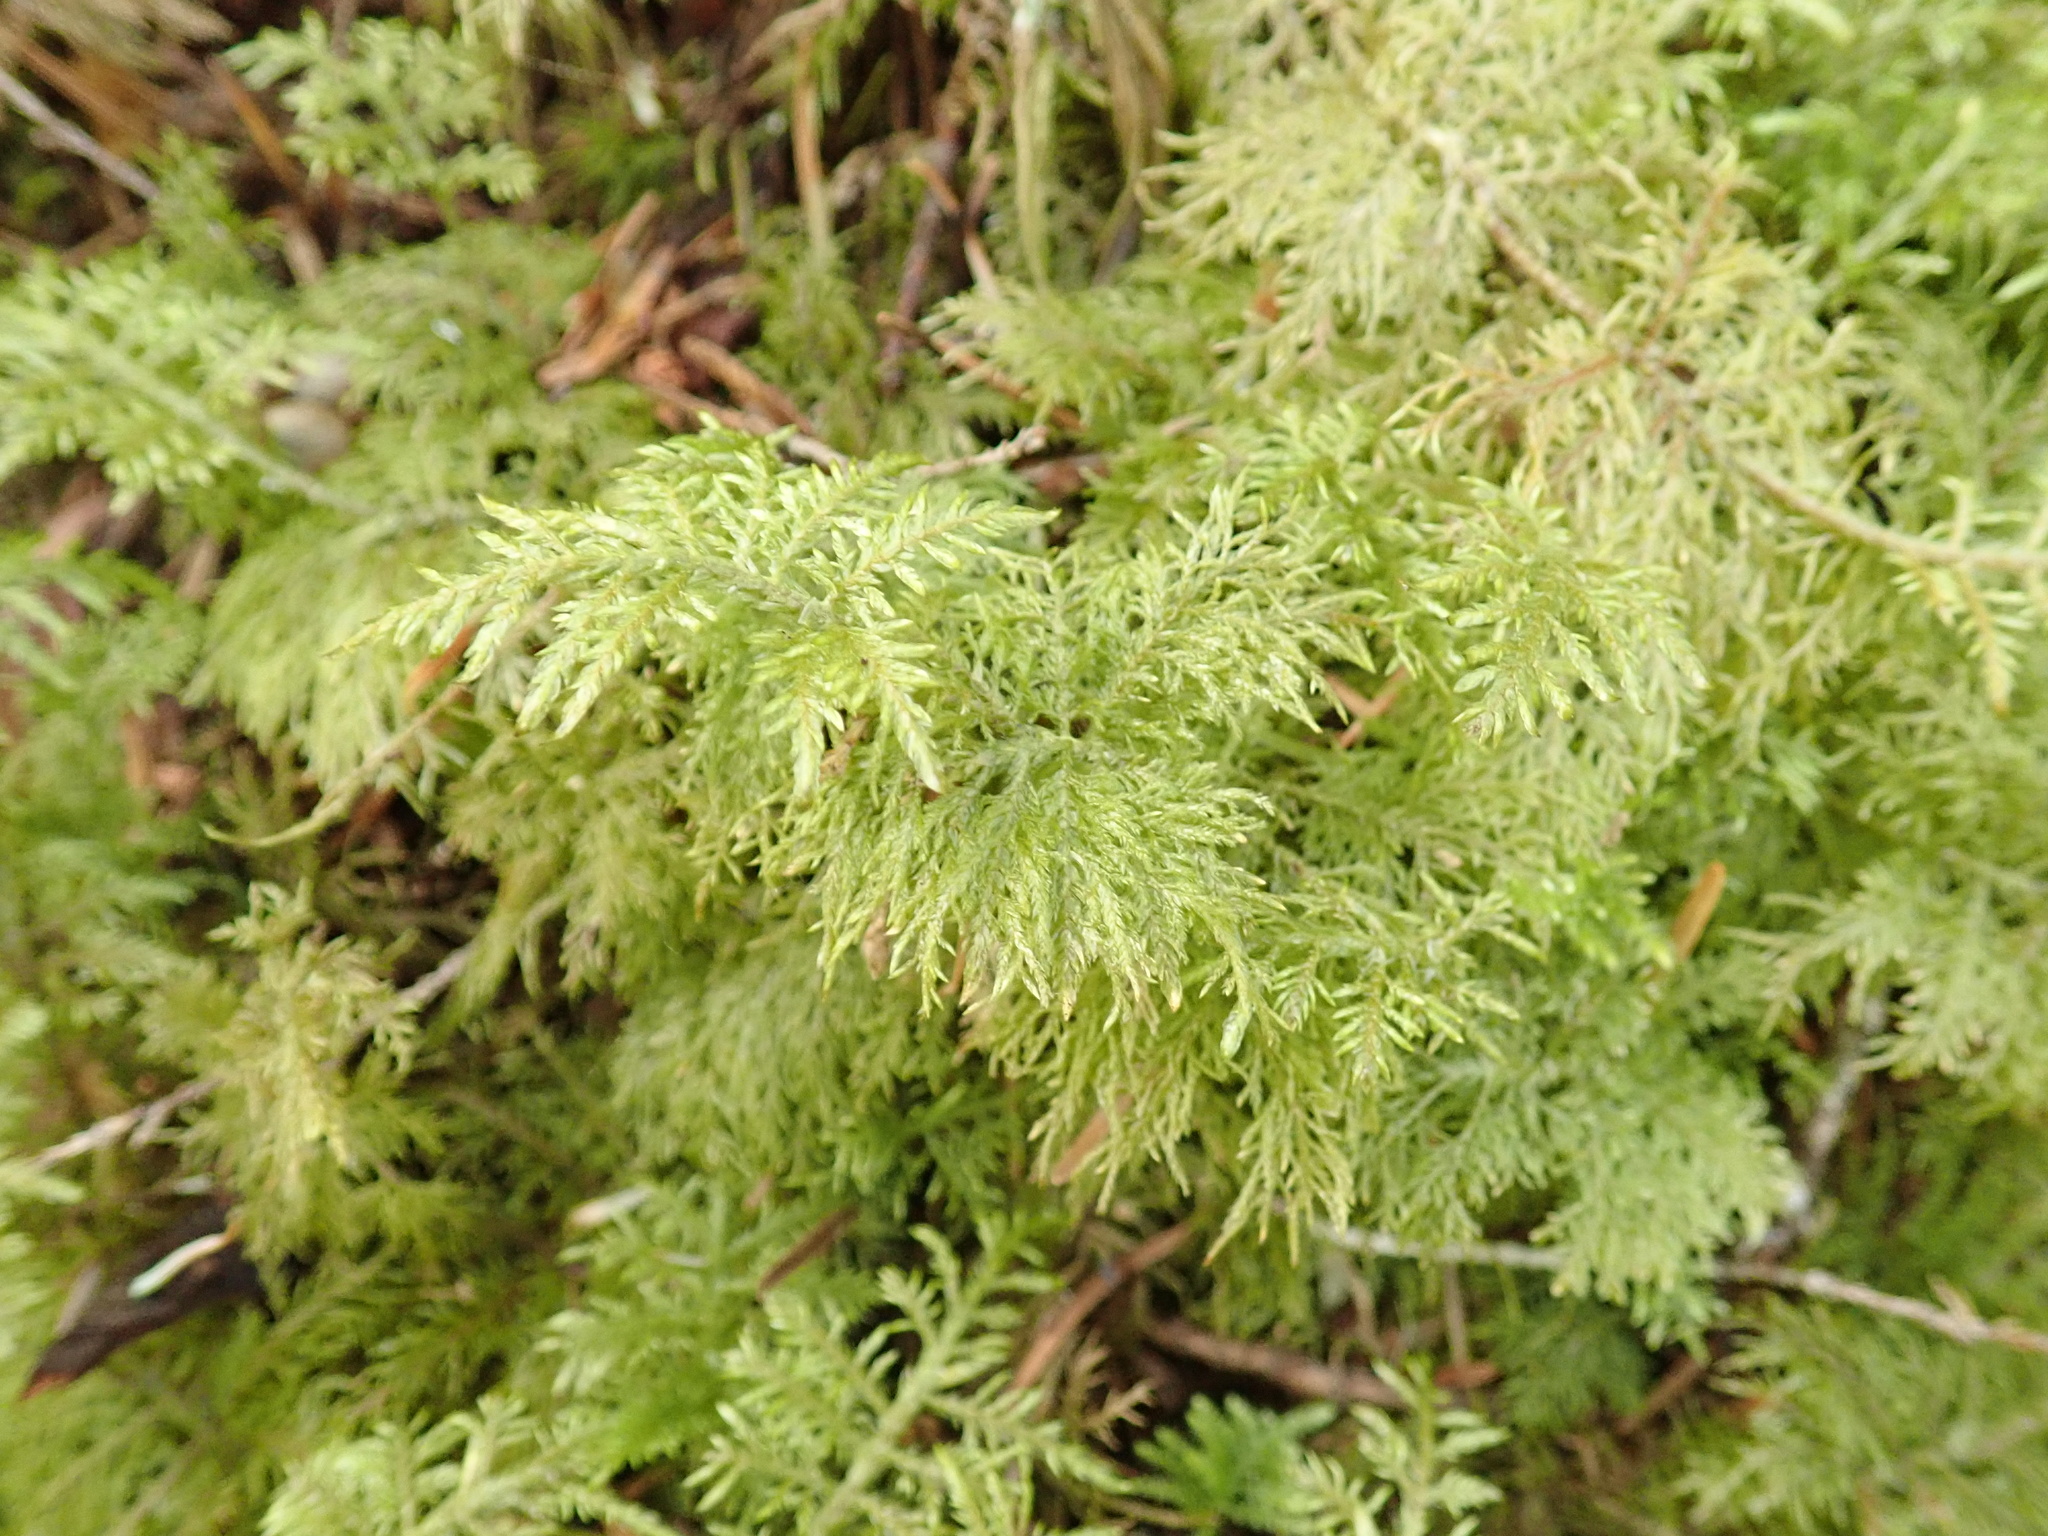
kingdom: Plantae
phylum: Bryophyta
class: Bryopsida
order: Hypnales
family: Hylocomiaceae
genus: Hylocomium
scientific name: Hylocomium splendens
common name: Stairstep moss
